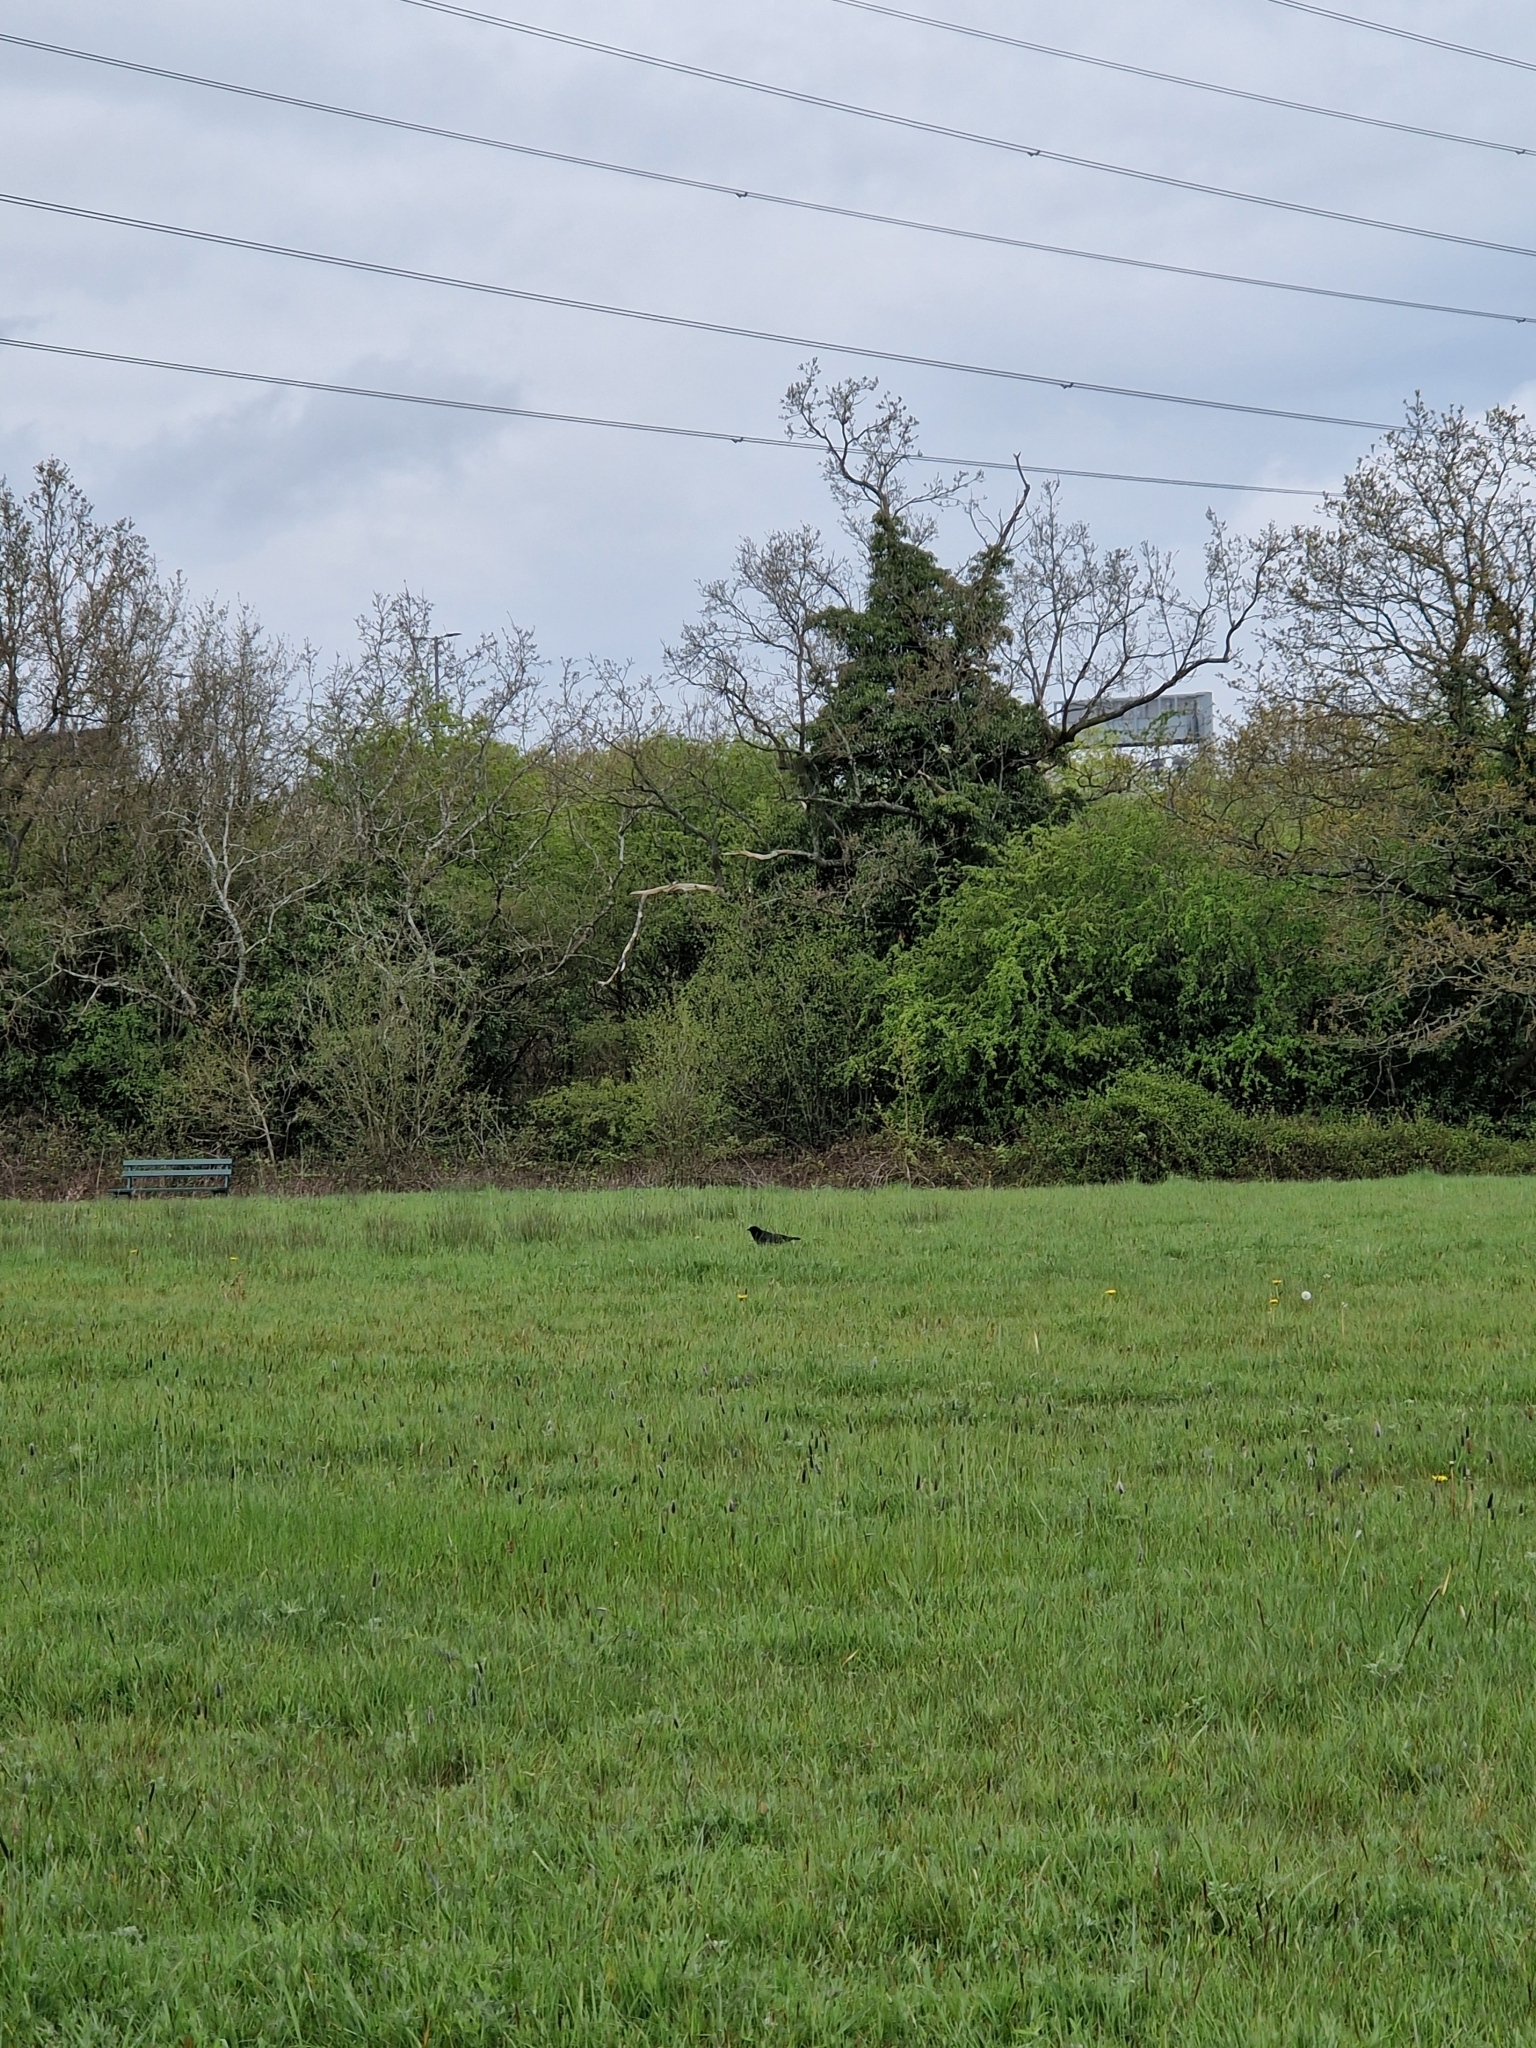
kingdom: Animalia
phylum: Chordata
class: Aves
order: Passeriformes
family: Corvidae
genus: Corvus
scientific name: Corvus corone
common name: Carrion crow
